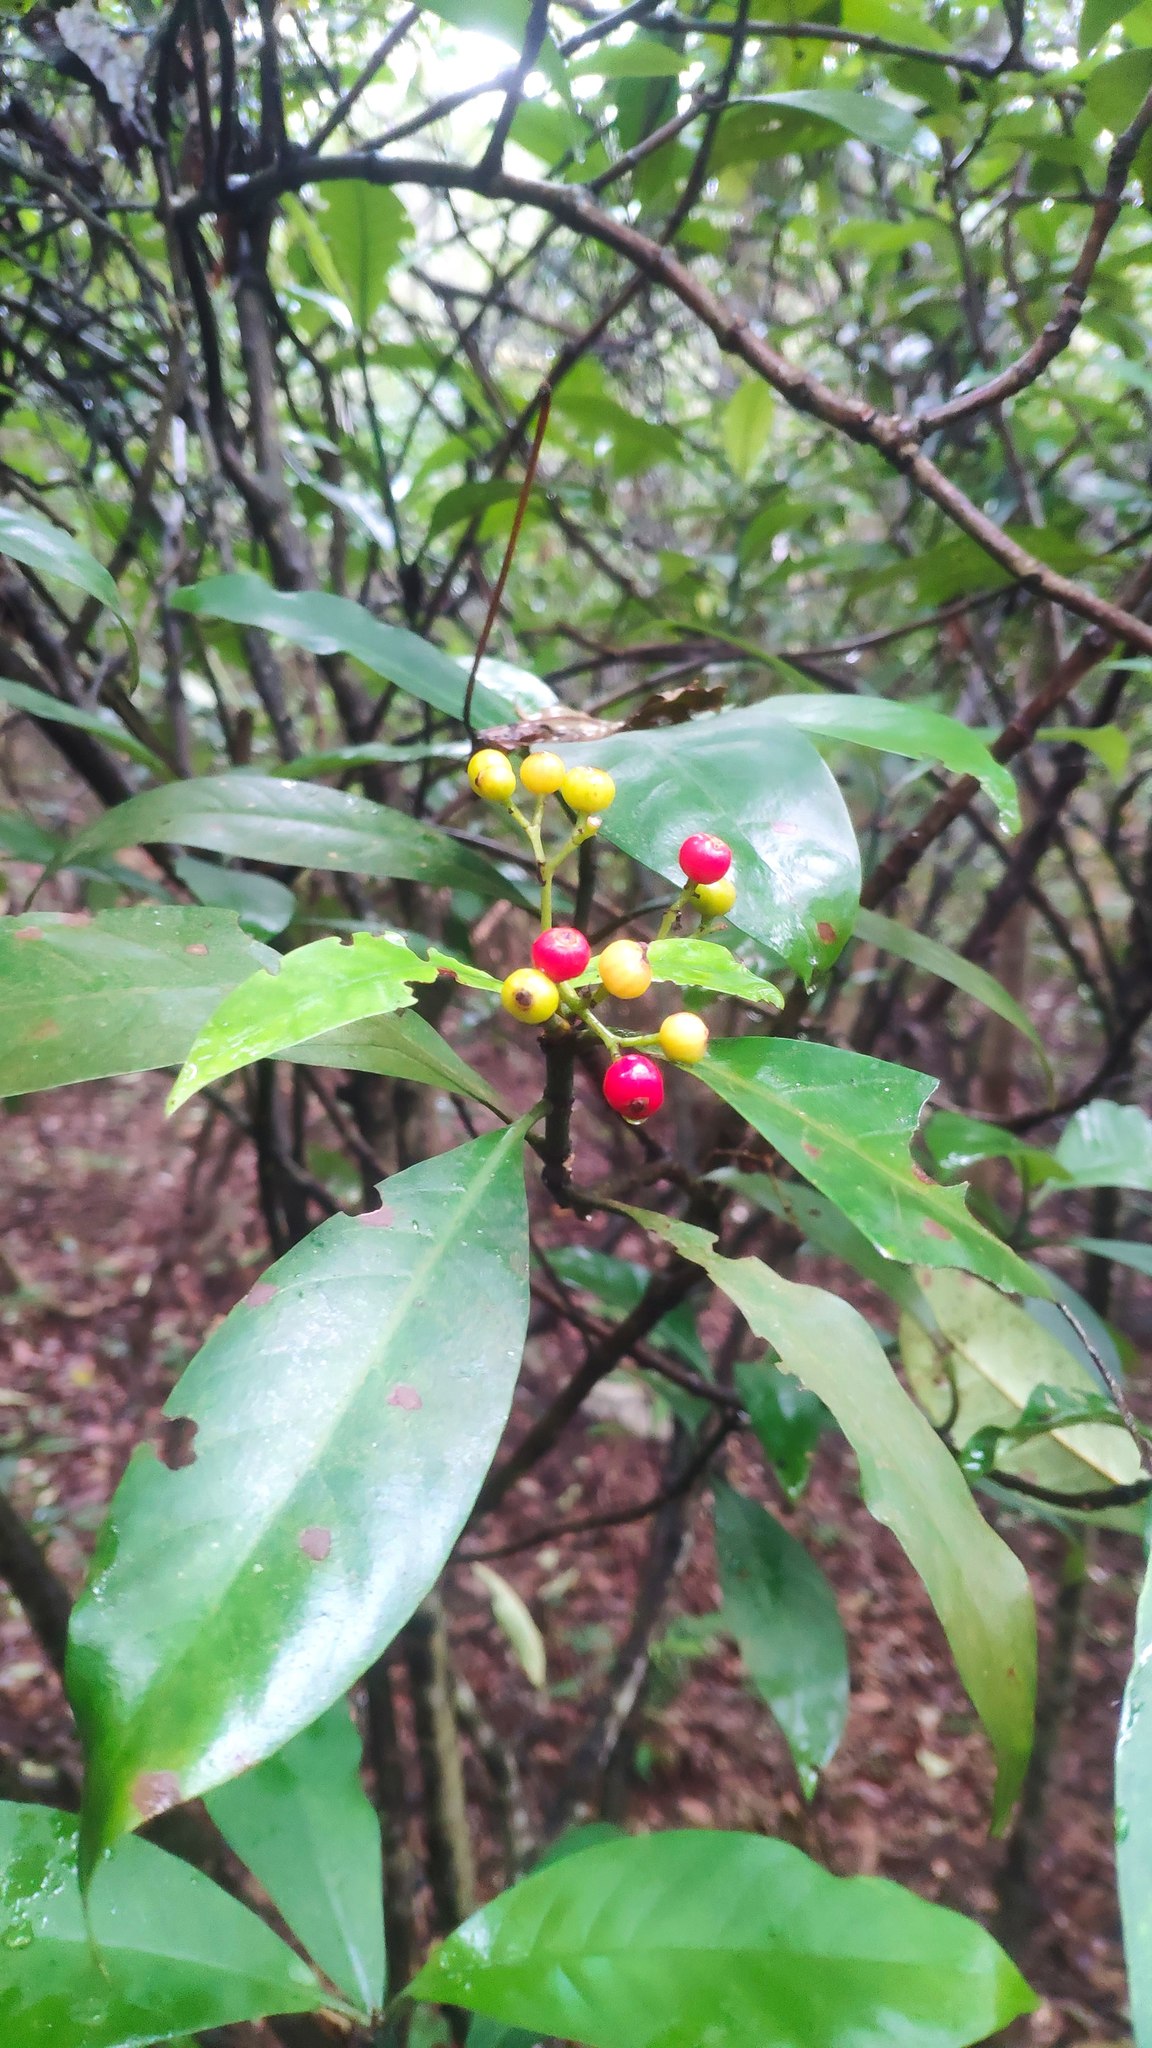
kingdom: Plantae
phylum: Tracheophyta
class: Magnoliopsida
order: Gentianales
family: Rubiaceae
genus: Psychotria
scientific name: Psychotria asiatica
